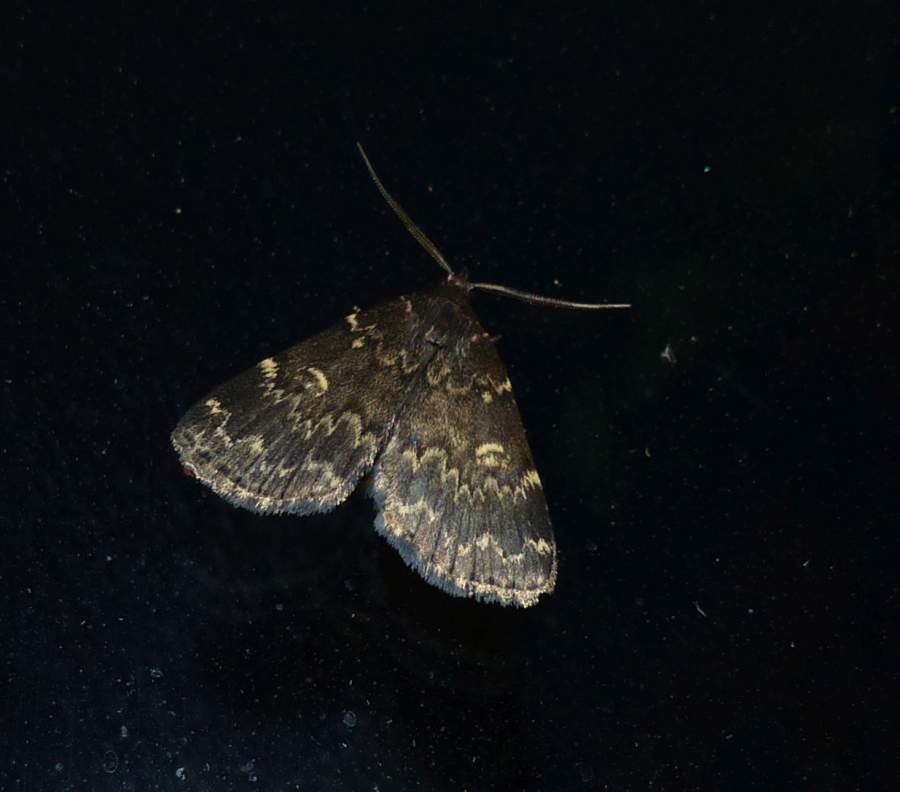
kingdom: Animalia
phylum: Arthropoda
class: Insecta
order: Lepidoptera
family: Erebidae
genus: Idia
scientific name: Idia lubricalis
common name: Twin-striped tabby
